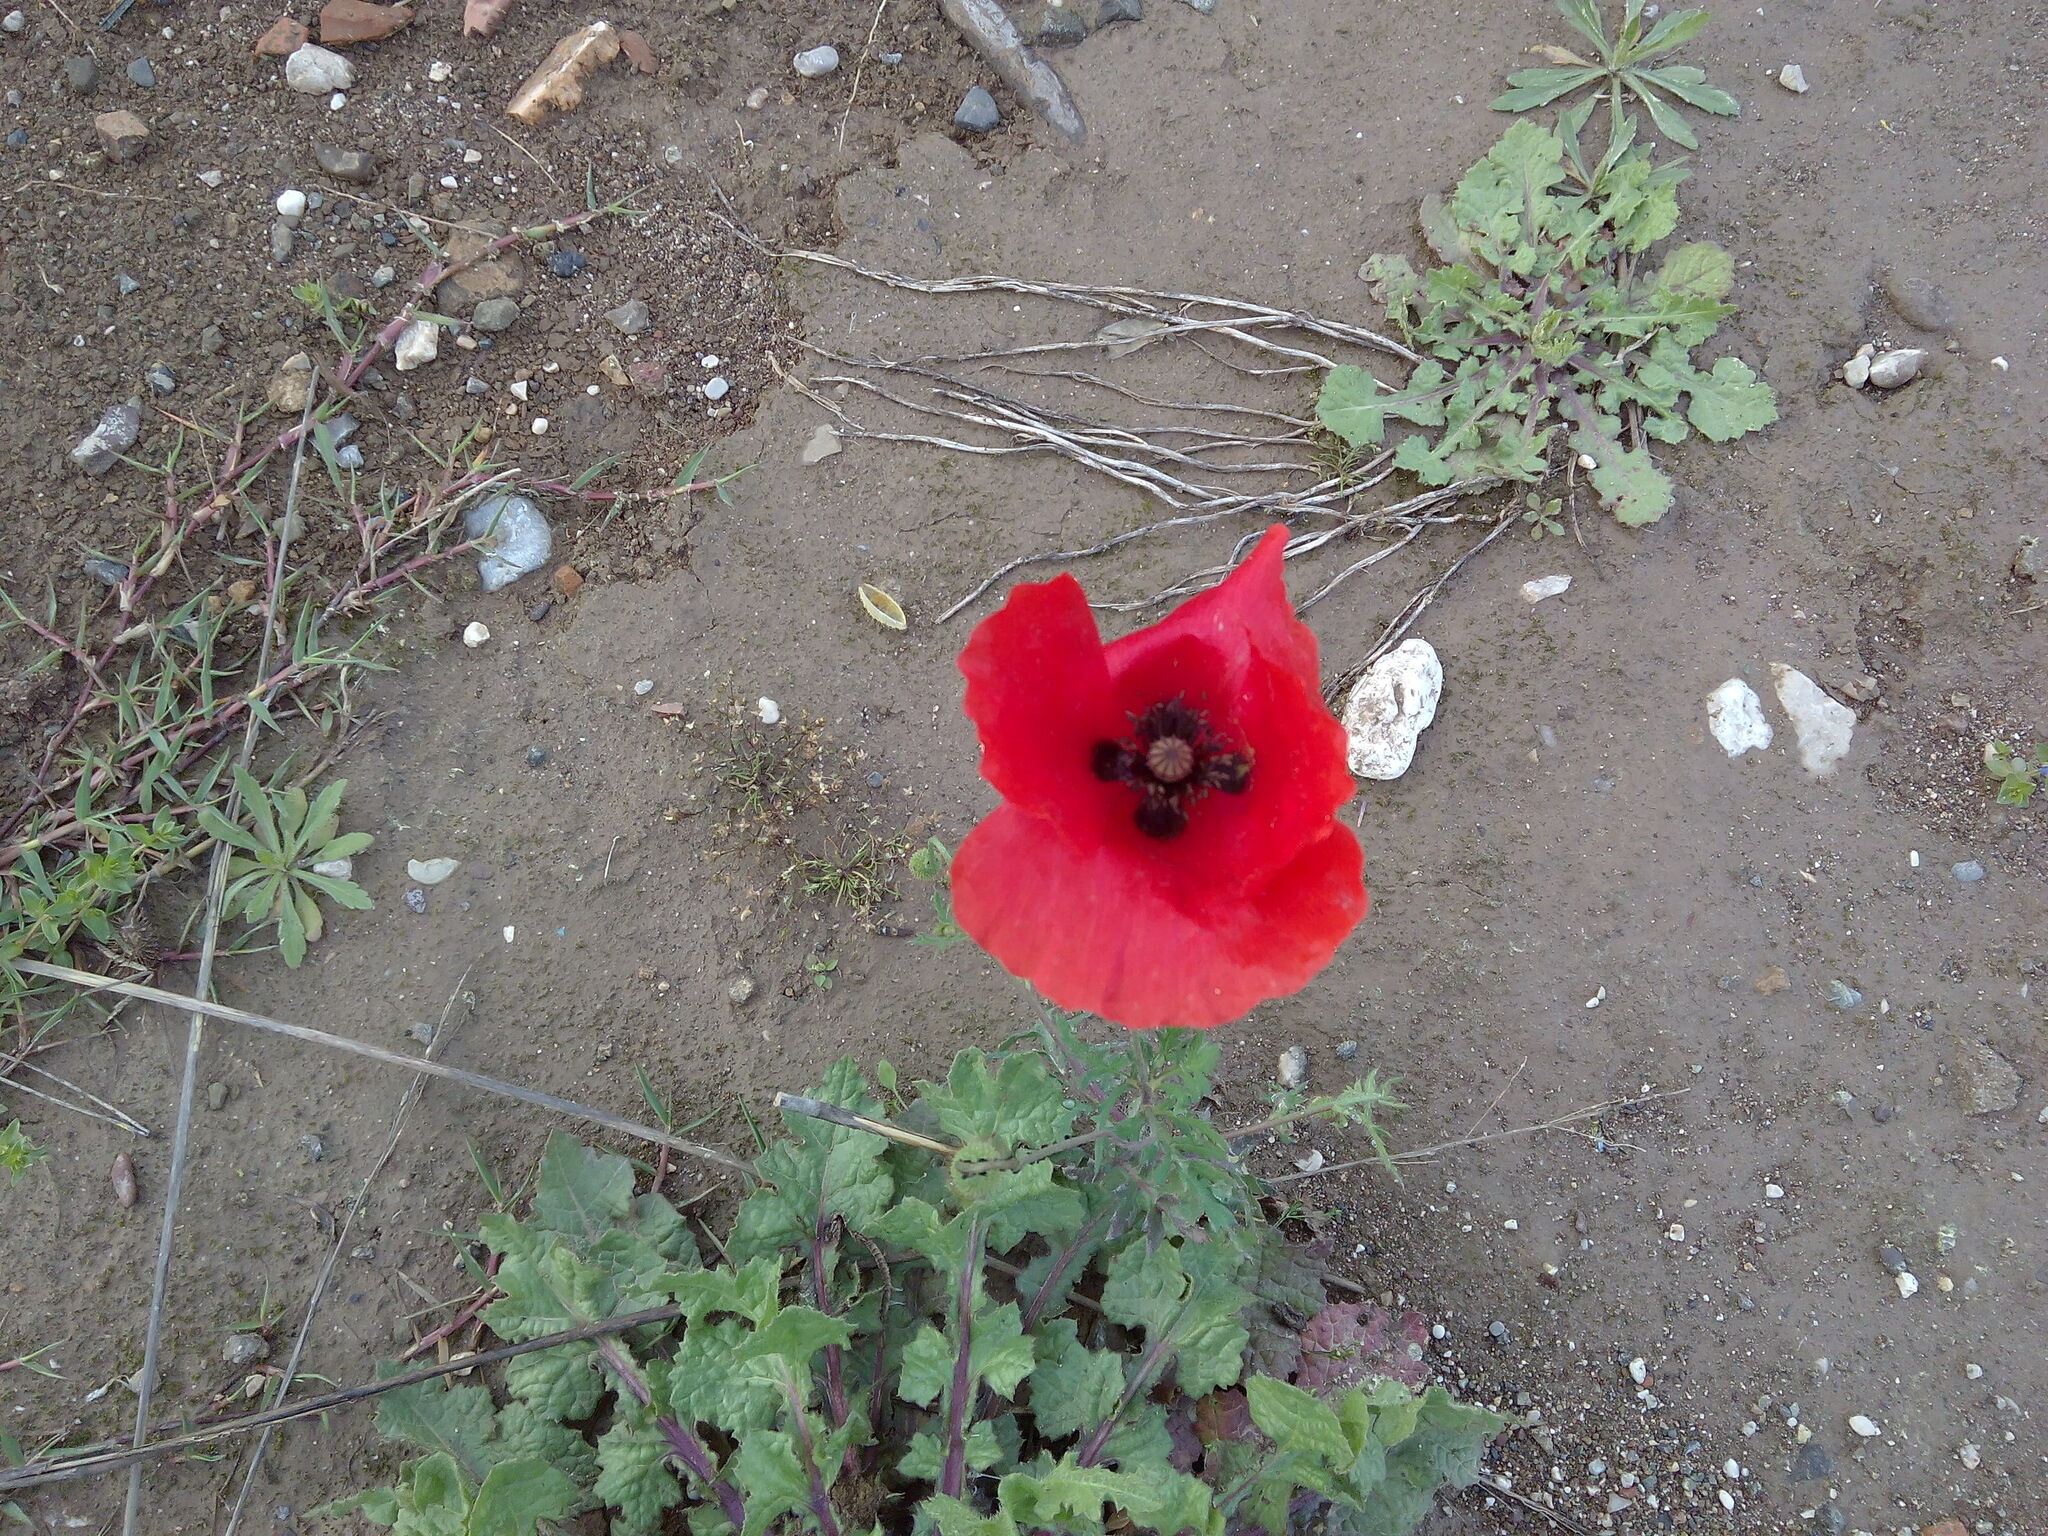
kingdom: Plantae
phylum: Tracheophyta
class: Magnoliopsida
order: Ranunculales
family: Papaveraceae
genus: Papaver
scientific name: Papaver rhoeas
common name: Corn poppy
